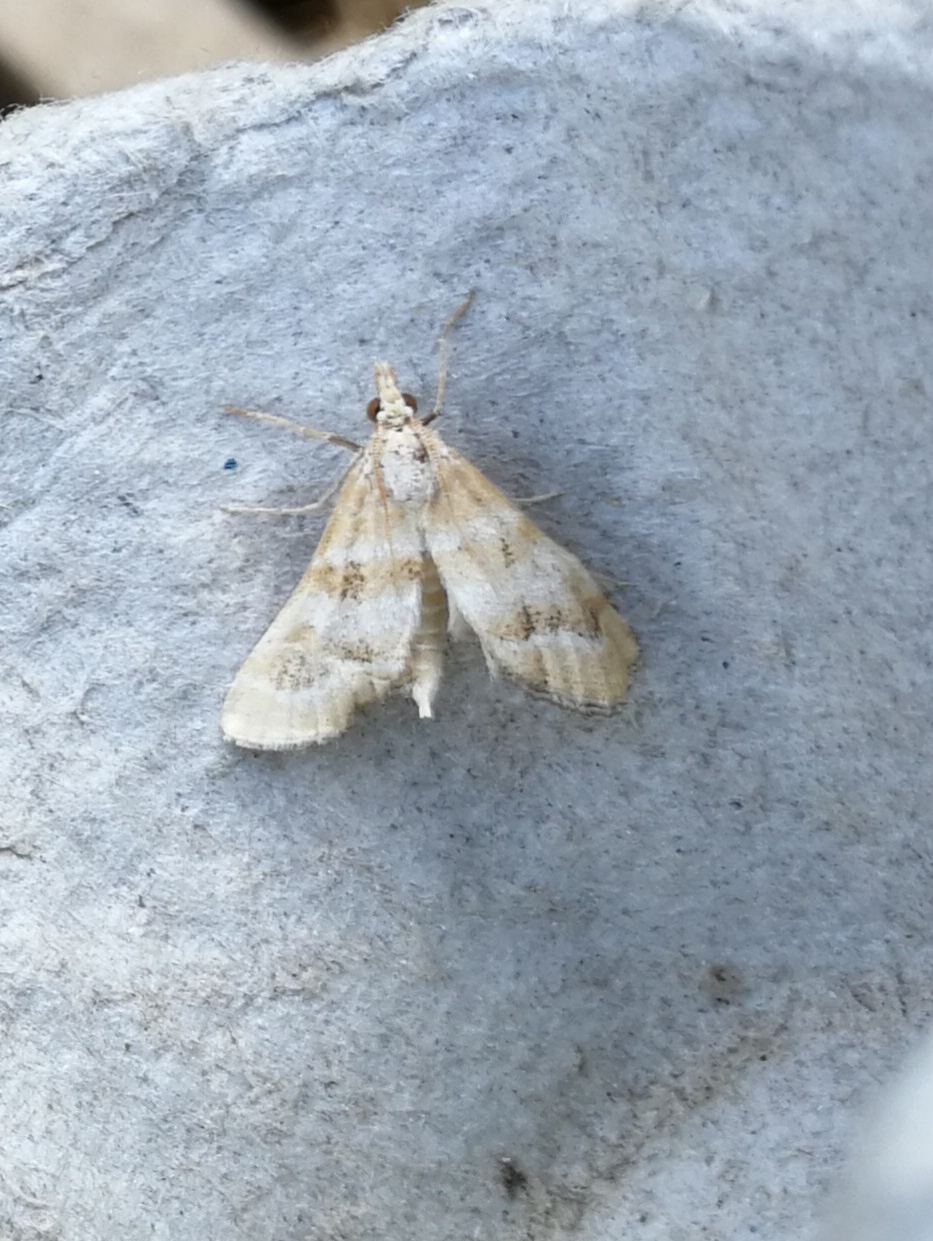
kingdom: Animalia
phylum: Arthropoda
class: Insecta
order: Lepidoptera
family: Crambidae
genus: Metasia
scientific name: Metasia suppandalis
